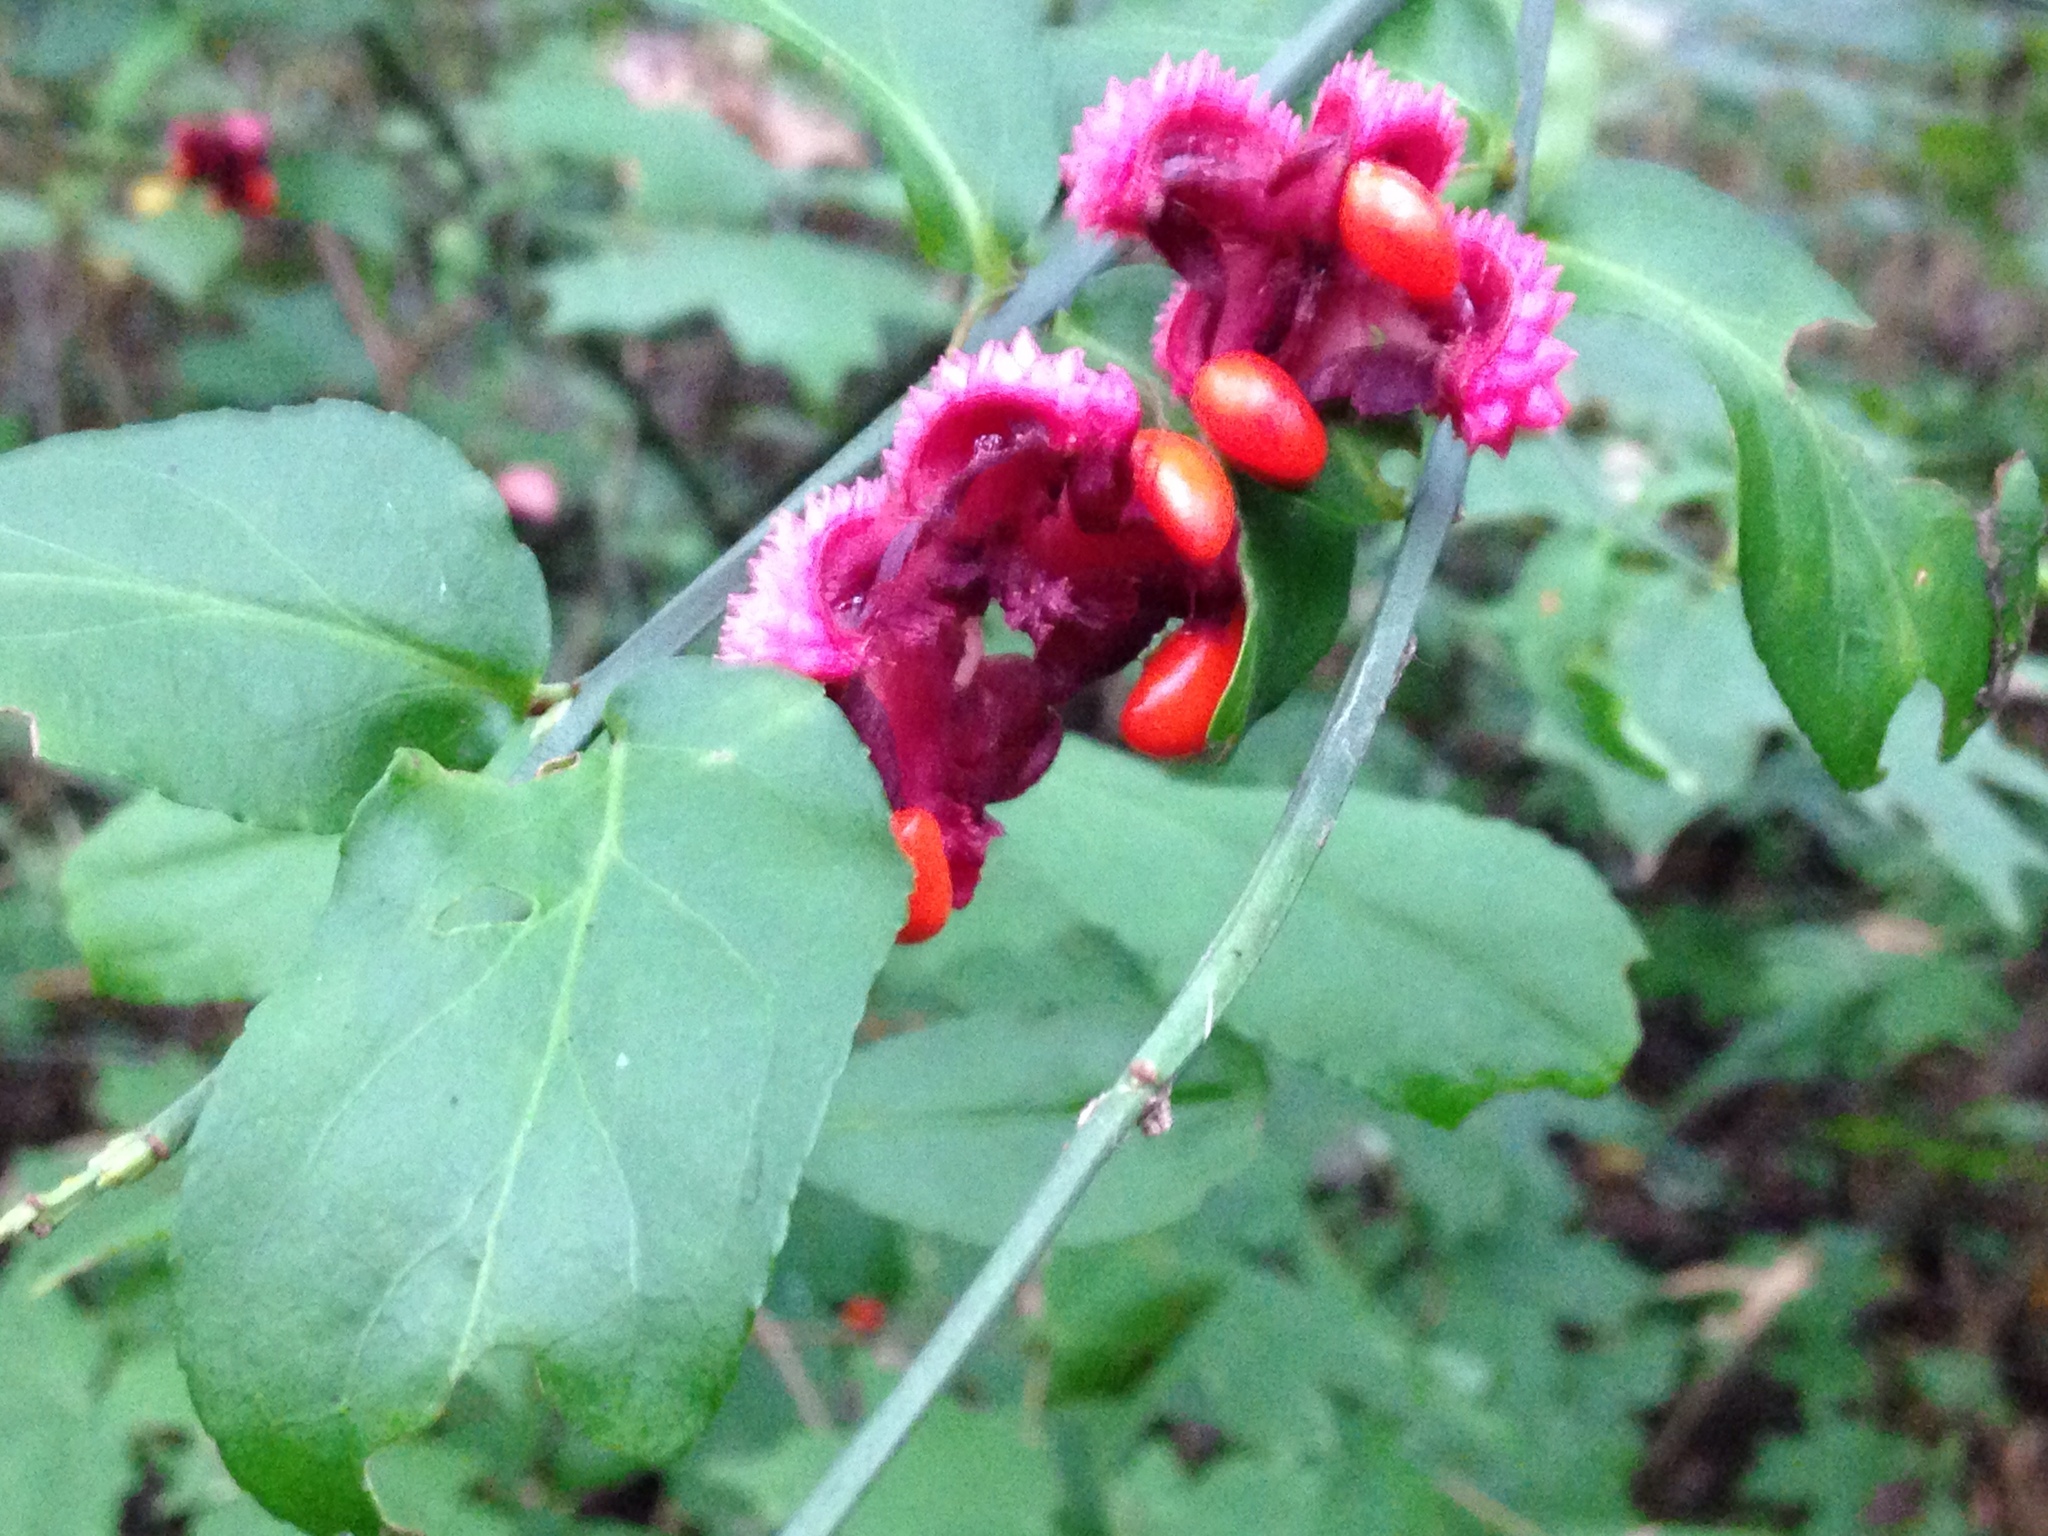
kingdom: Plantae
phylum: Tracheophyta
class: Magnoliopsida
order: Celastrales
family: Celastraceae
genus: Euonymus
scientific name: Euonymus americanus
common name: Bursting-heart
